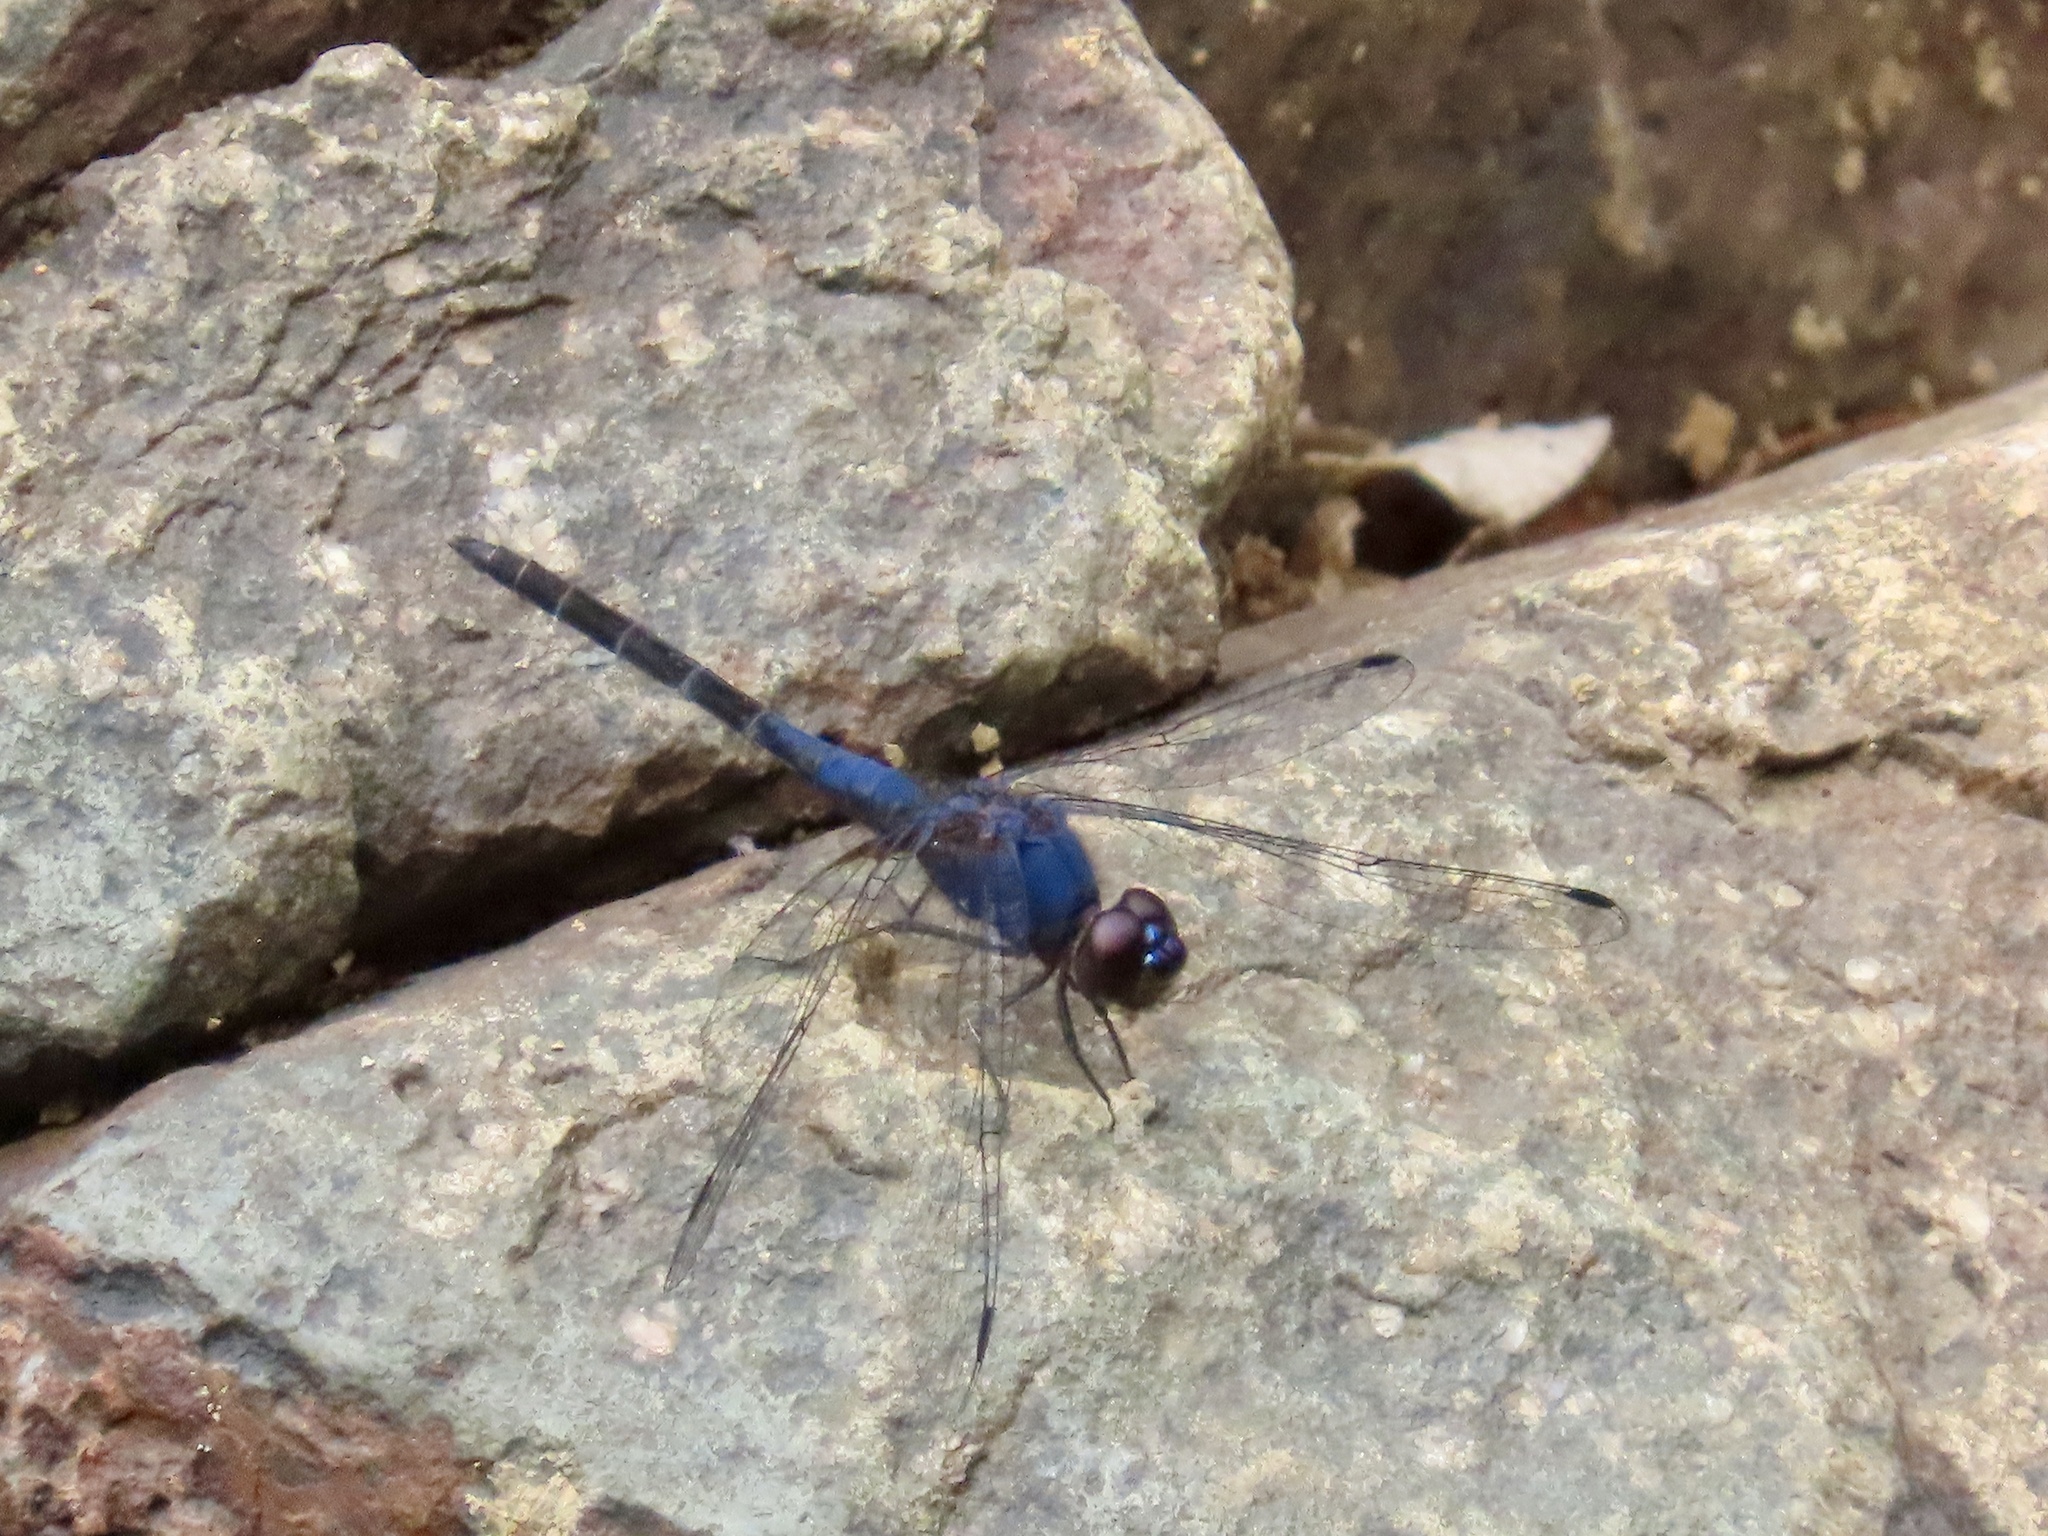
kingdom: Animalia
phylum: Arthropoda
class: Insecta
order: Odonata
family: Libellulidae
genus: Trithemis
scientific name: Trithemis festiva
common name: Indigo dropwing
